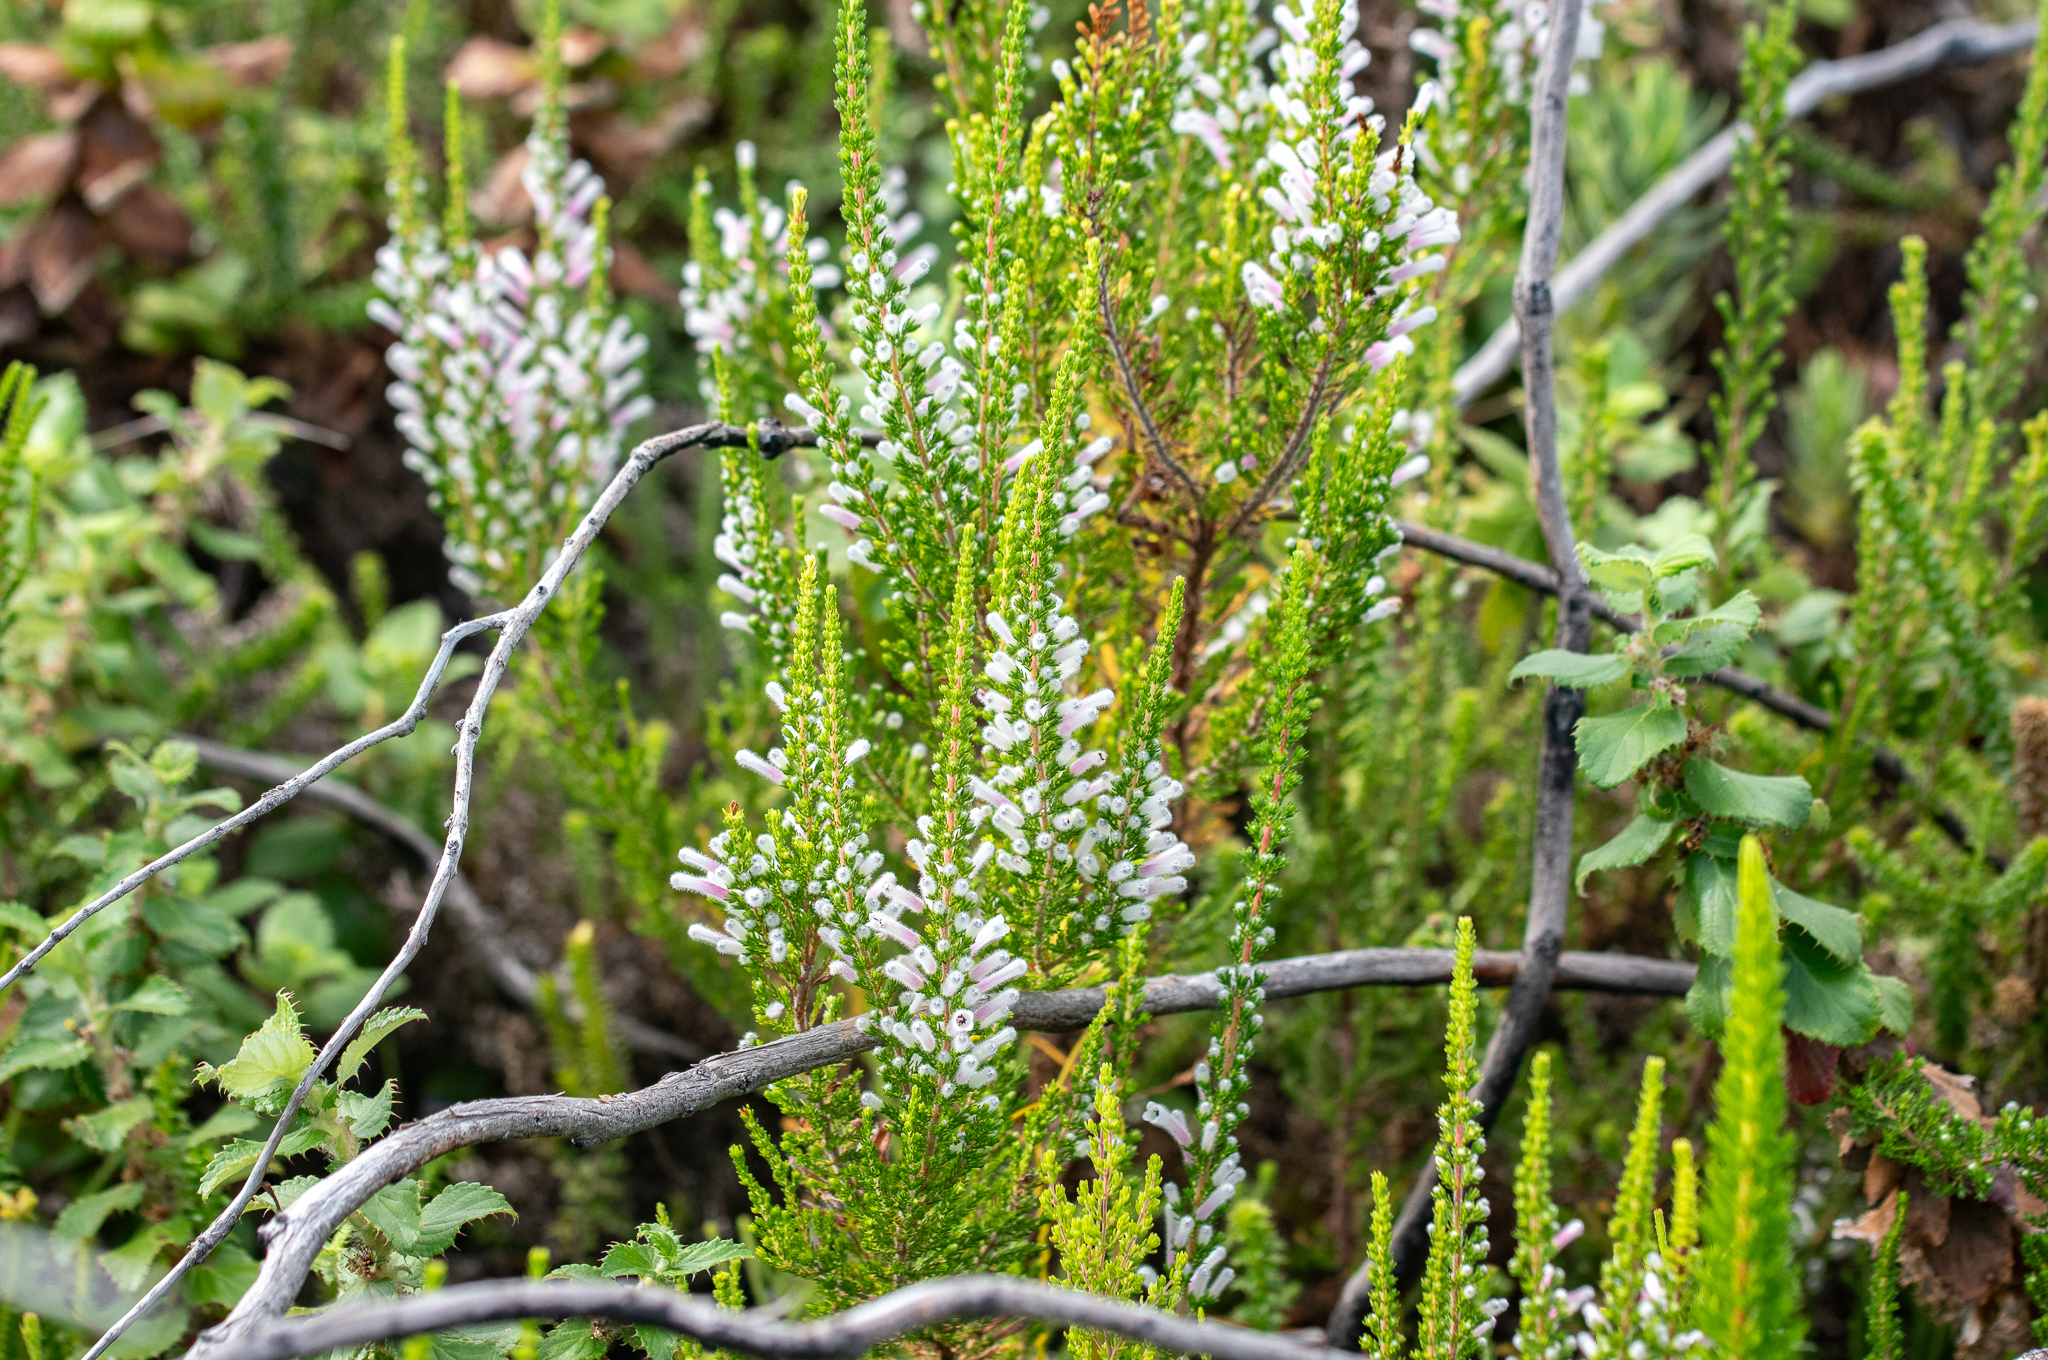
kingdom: Plantae
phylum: Tracheophyta
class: Magnoliopsida
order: Ericales
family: Ericaceae
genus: Erica
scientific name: Erica perspicua
